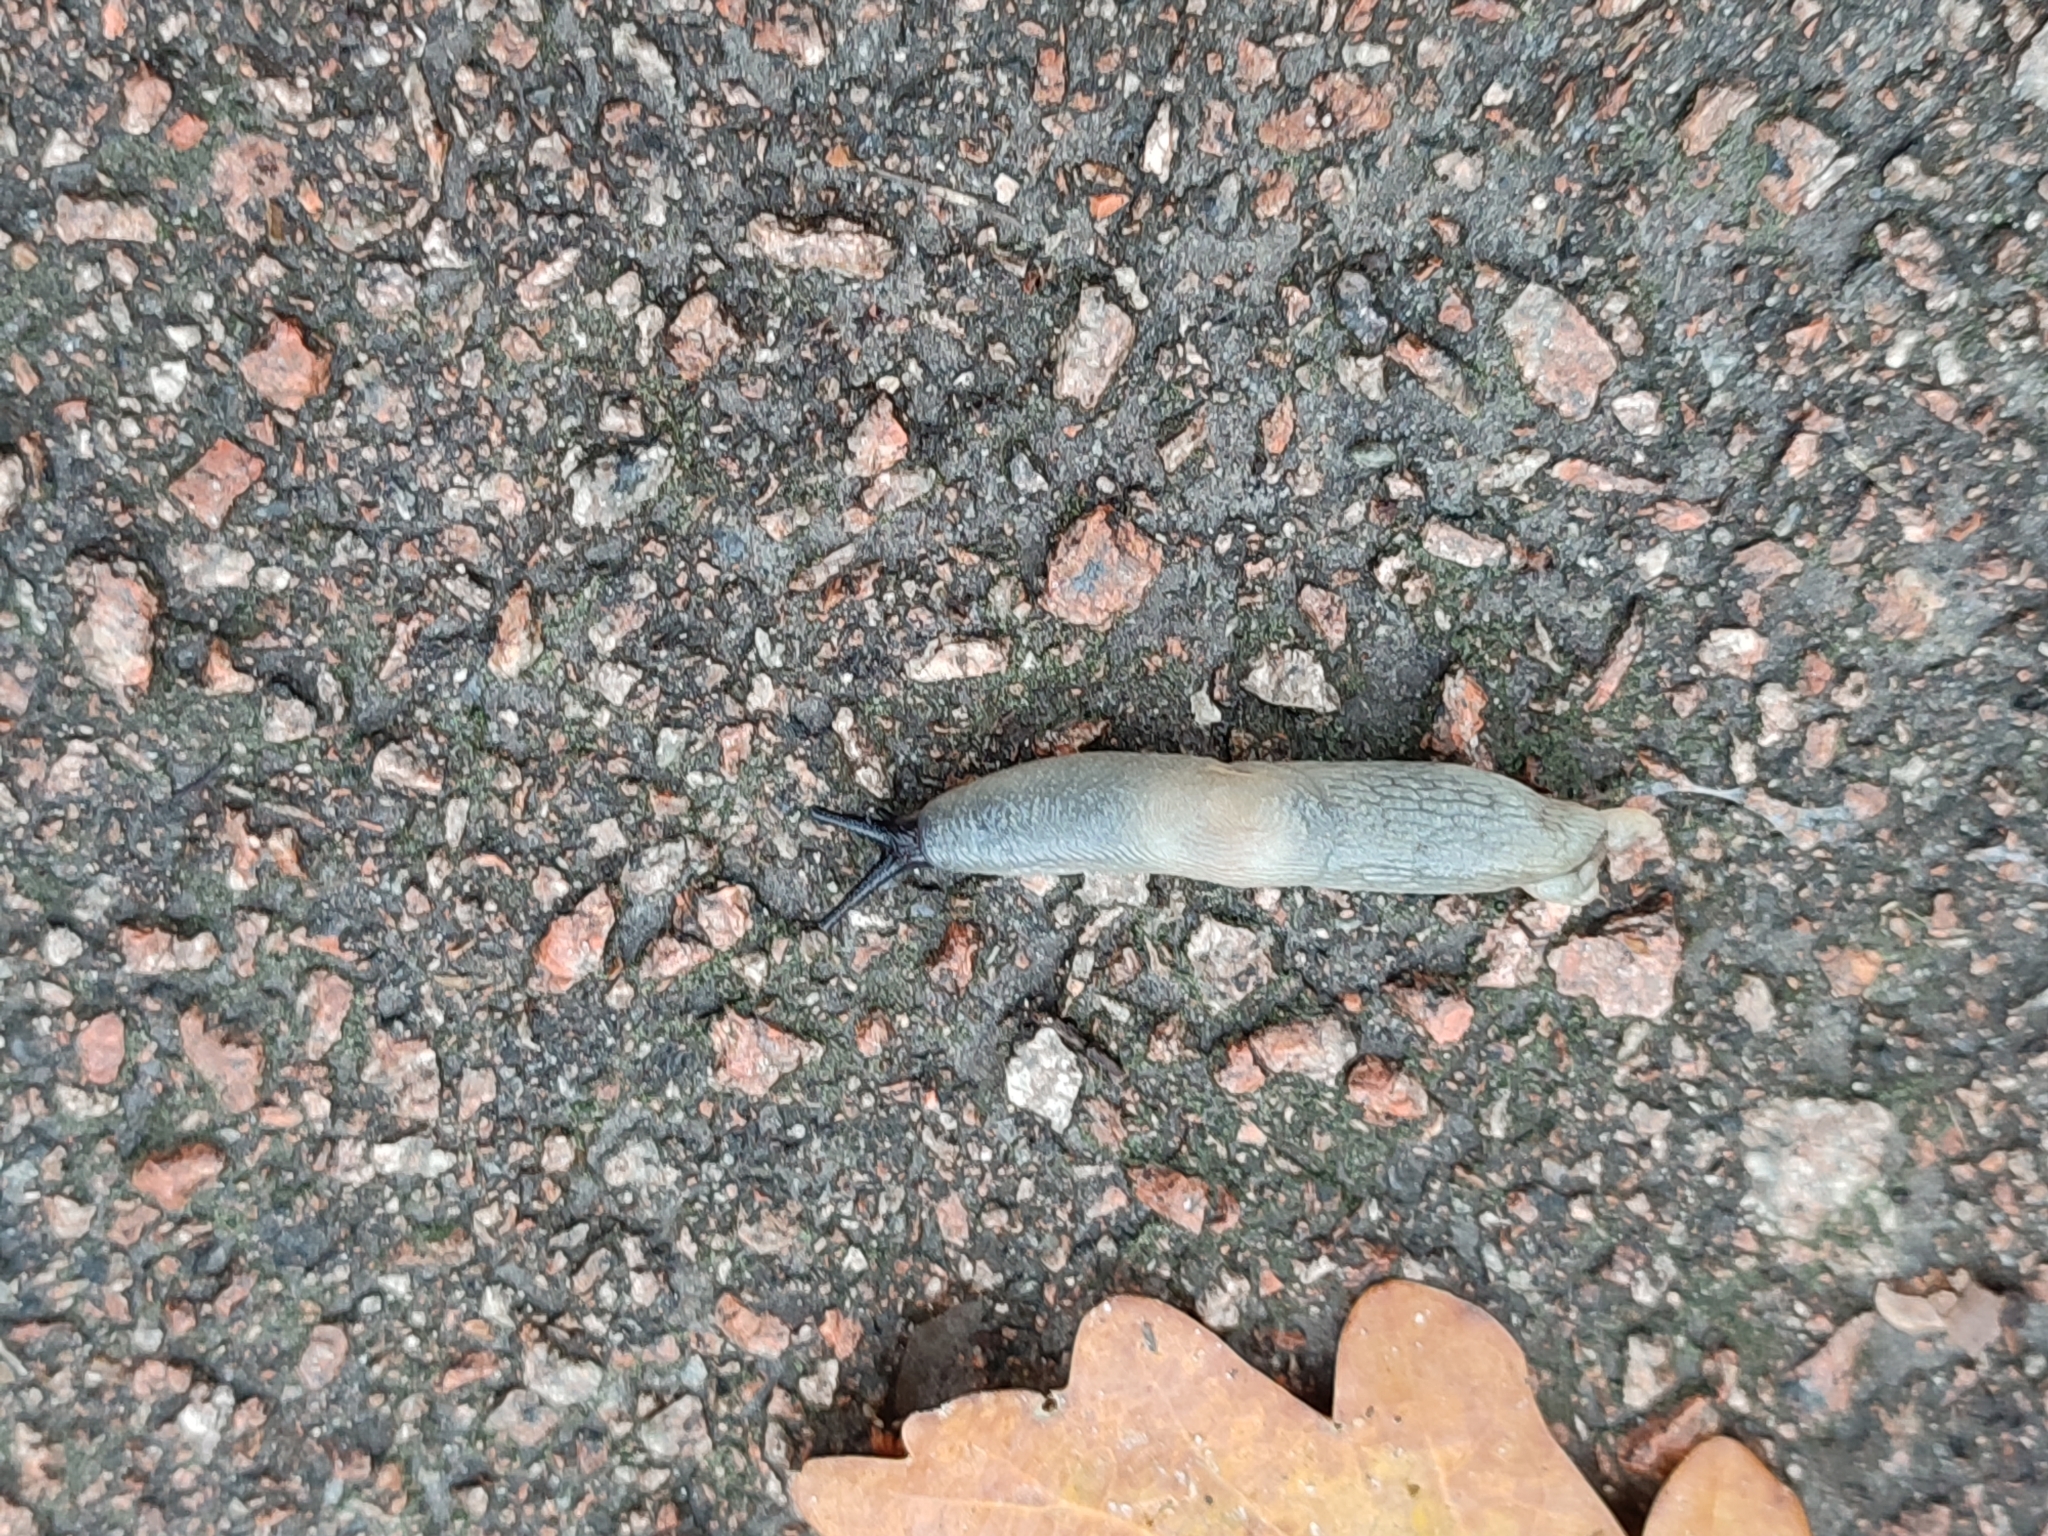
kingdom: Animalia
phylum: Mollusca
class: Gastropoda
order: Stylommatophora
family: Agriolimacidae
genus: Krynickillus
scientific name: Krynickillus melanocephalus
